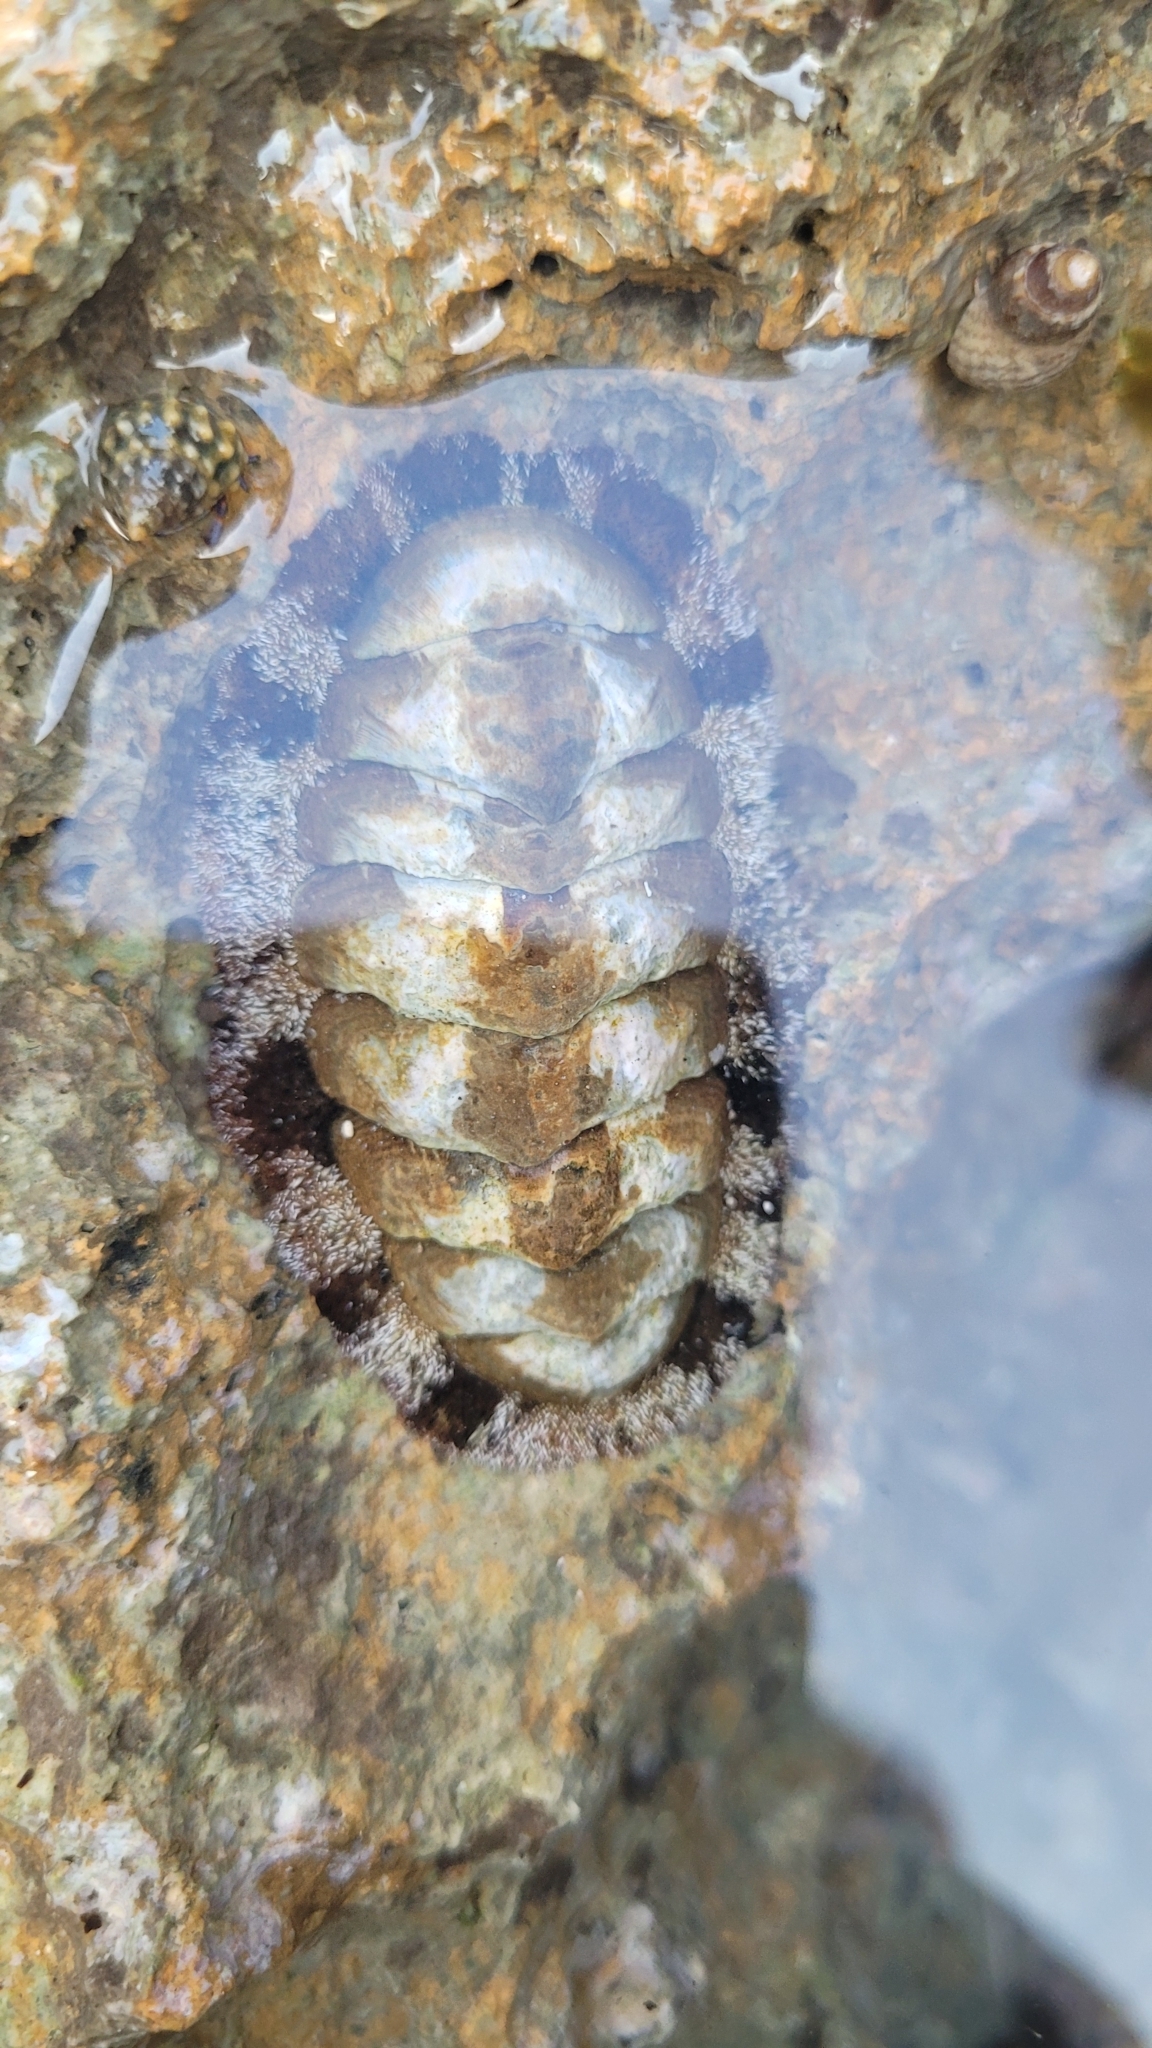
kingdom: Animalia
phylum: Mollusca
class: Polyplacophora
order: Chitonida
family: Chitonidae
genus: Acanthopleura
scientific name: Acanthopleura granulata
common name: West indian fuzzy chiton
